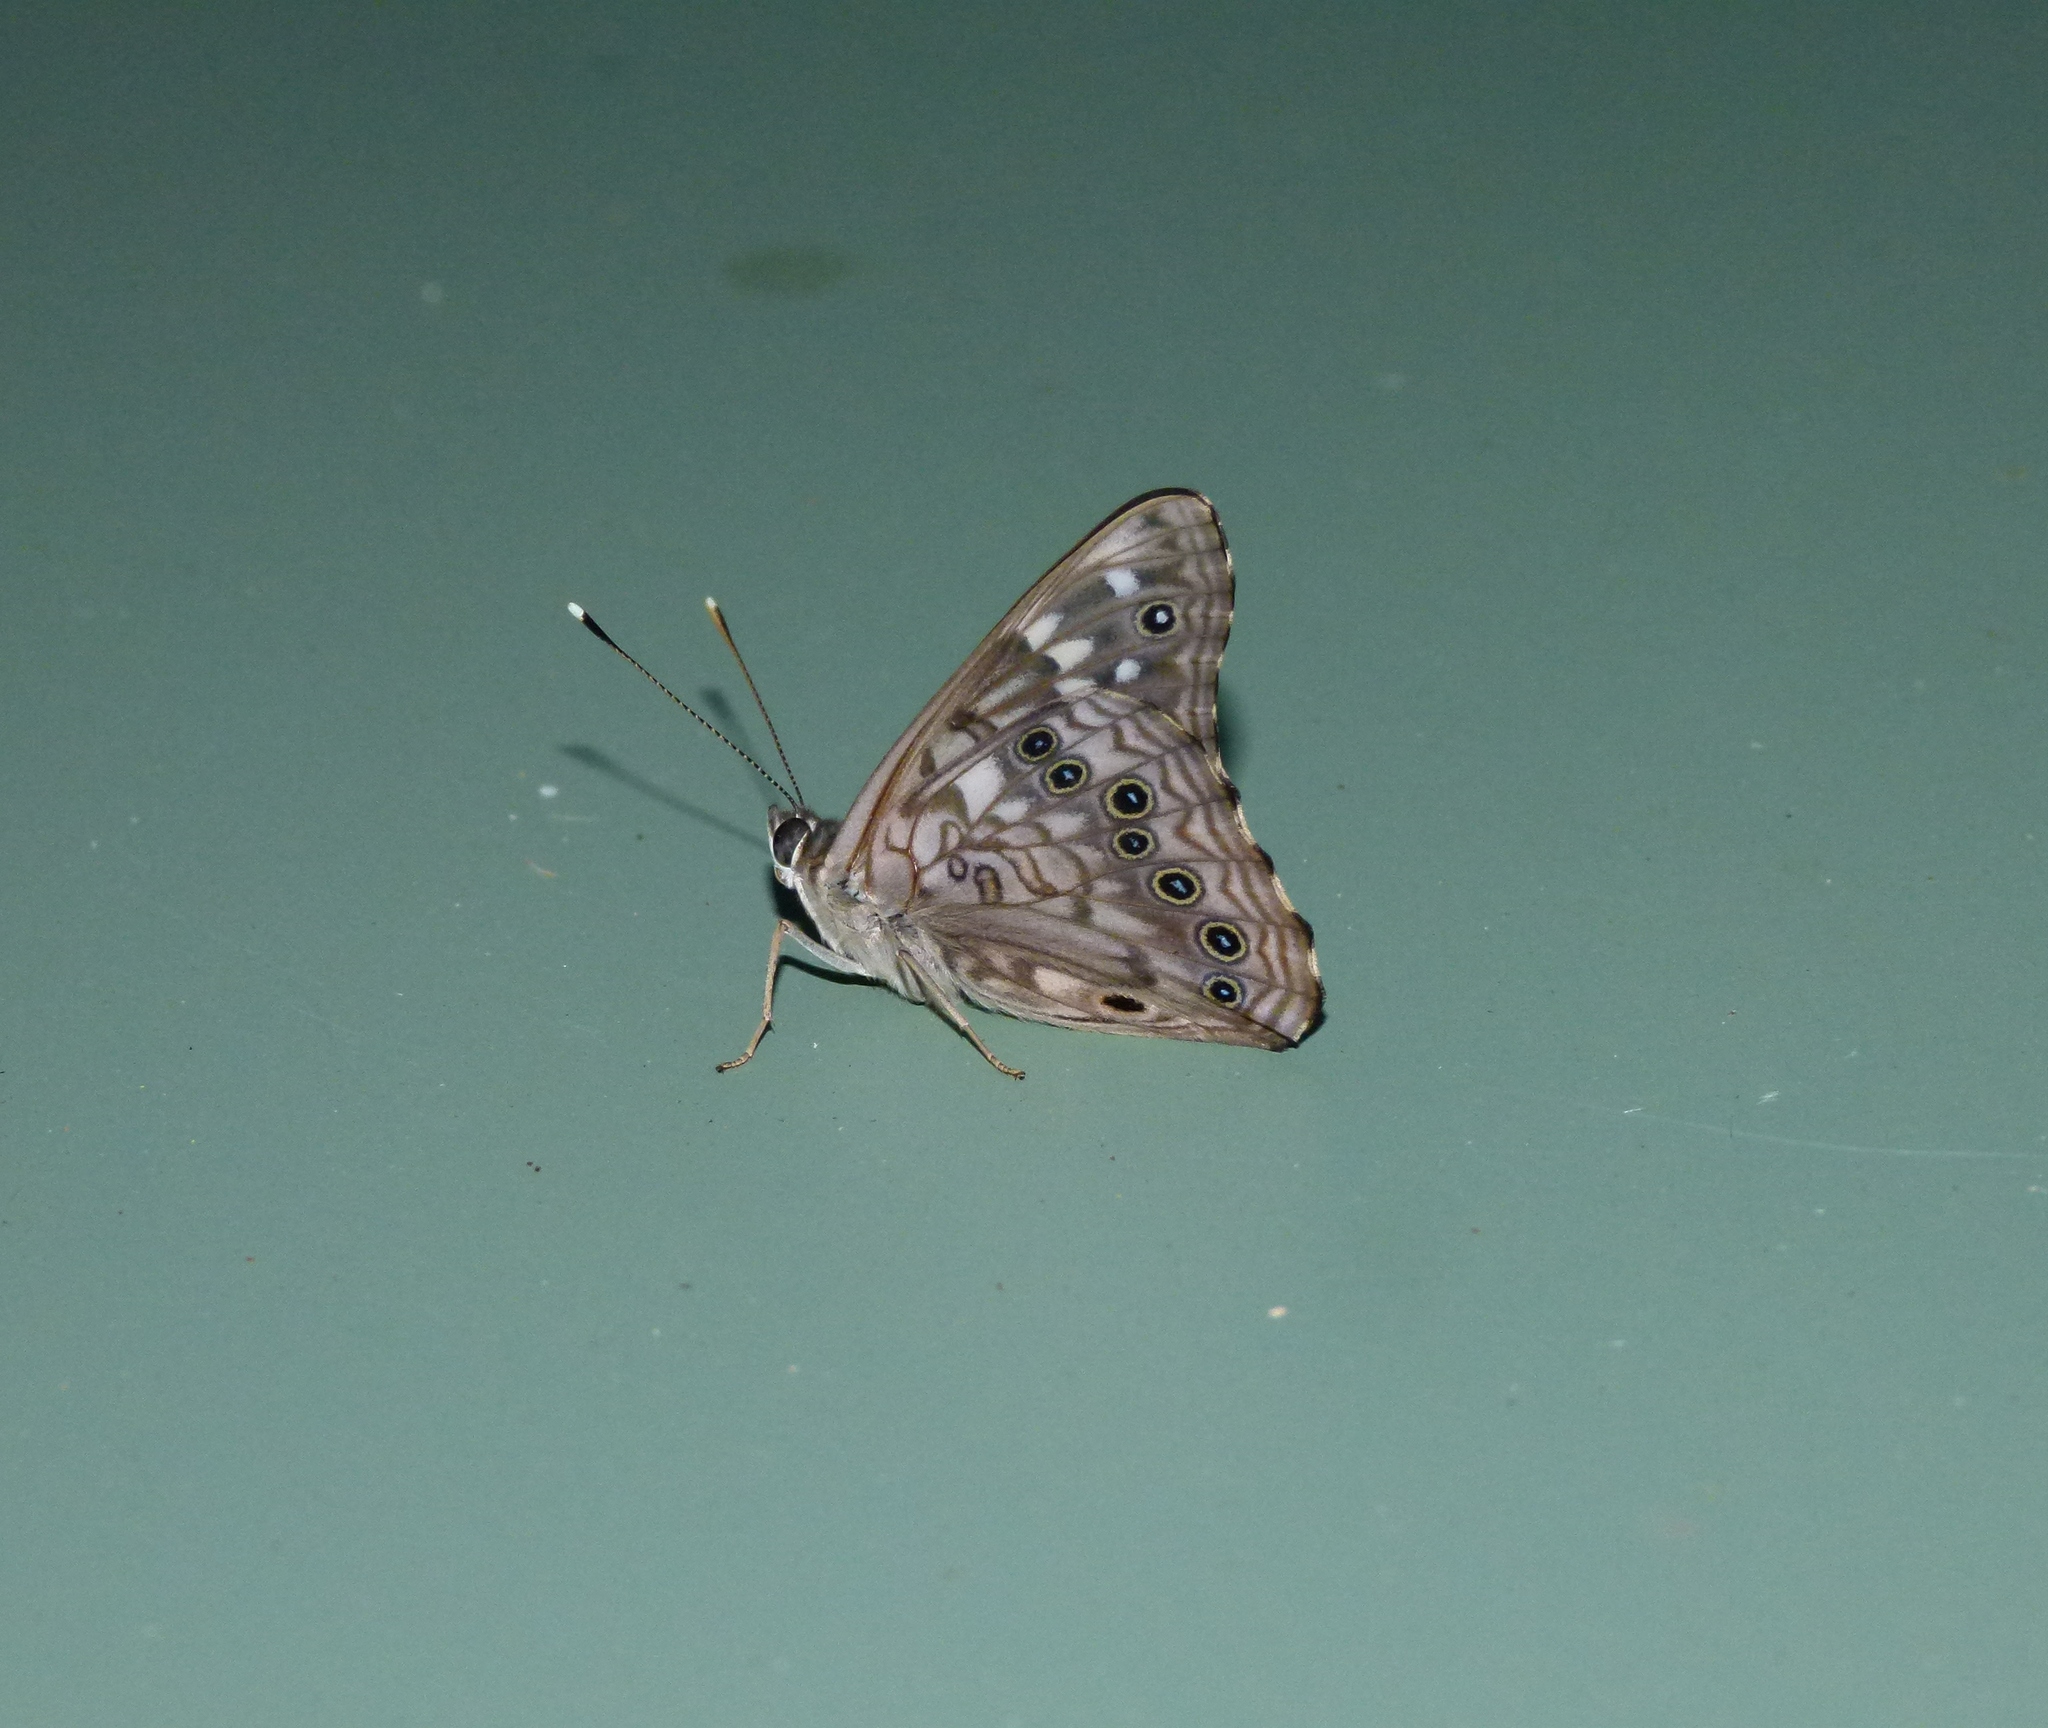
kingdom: Animalia
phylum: Arthropoda
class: Insecta
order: Lepidoptera
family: Nymphalidae
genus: Asterocampa
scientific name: Asterocampa celtis
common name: Hackberry emperor
